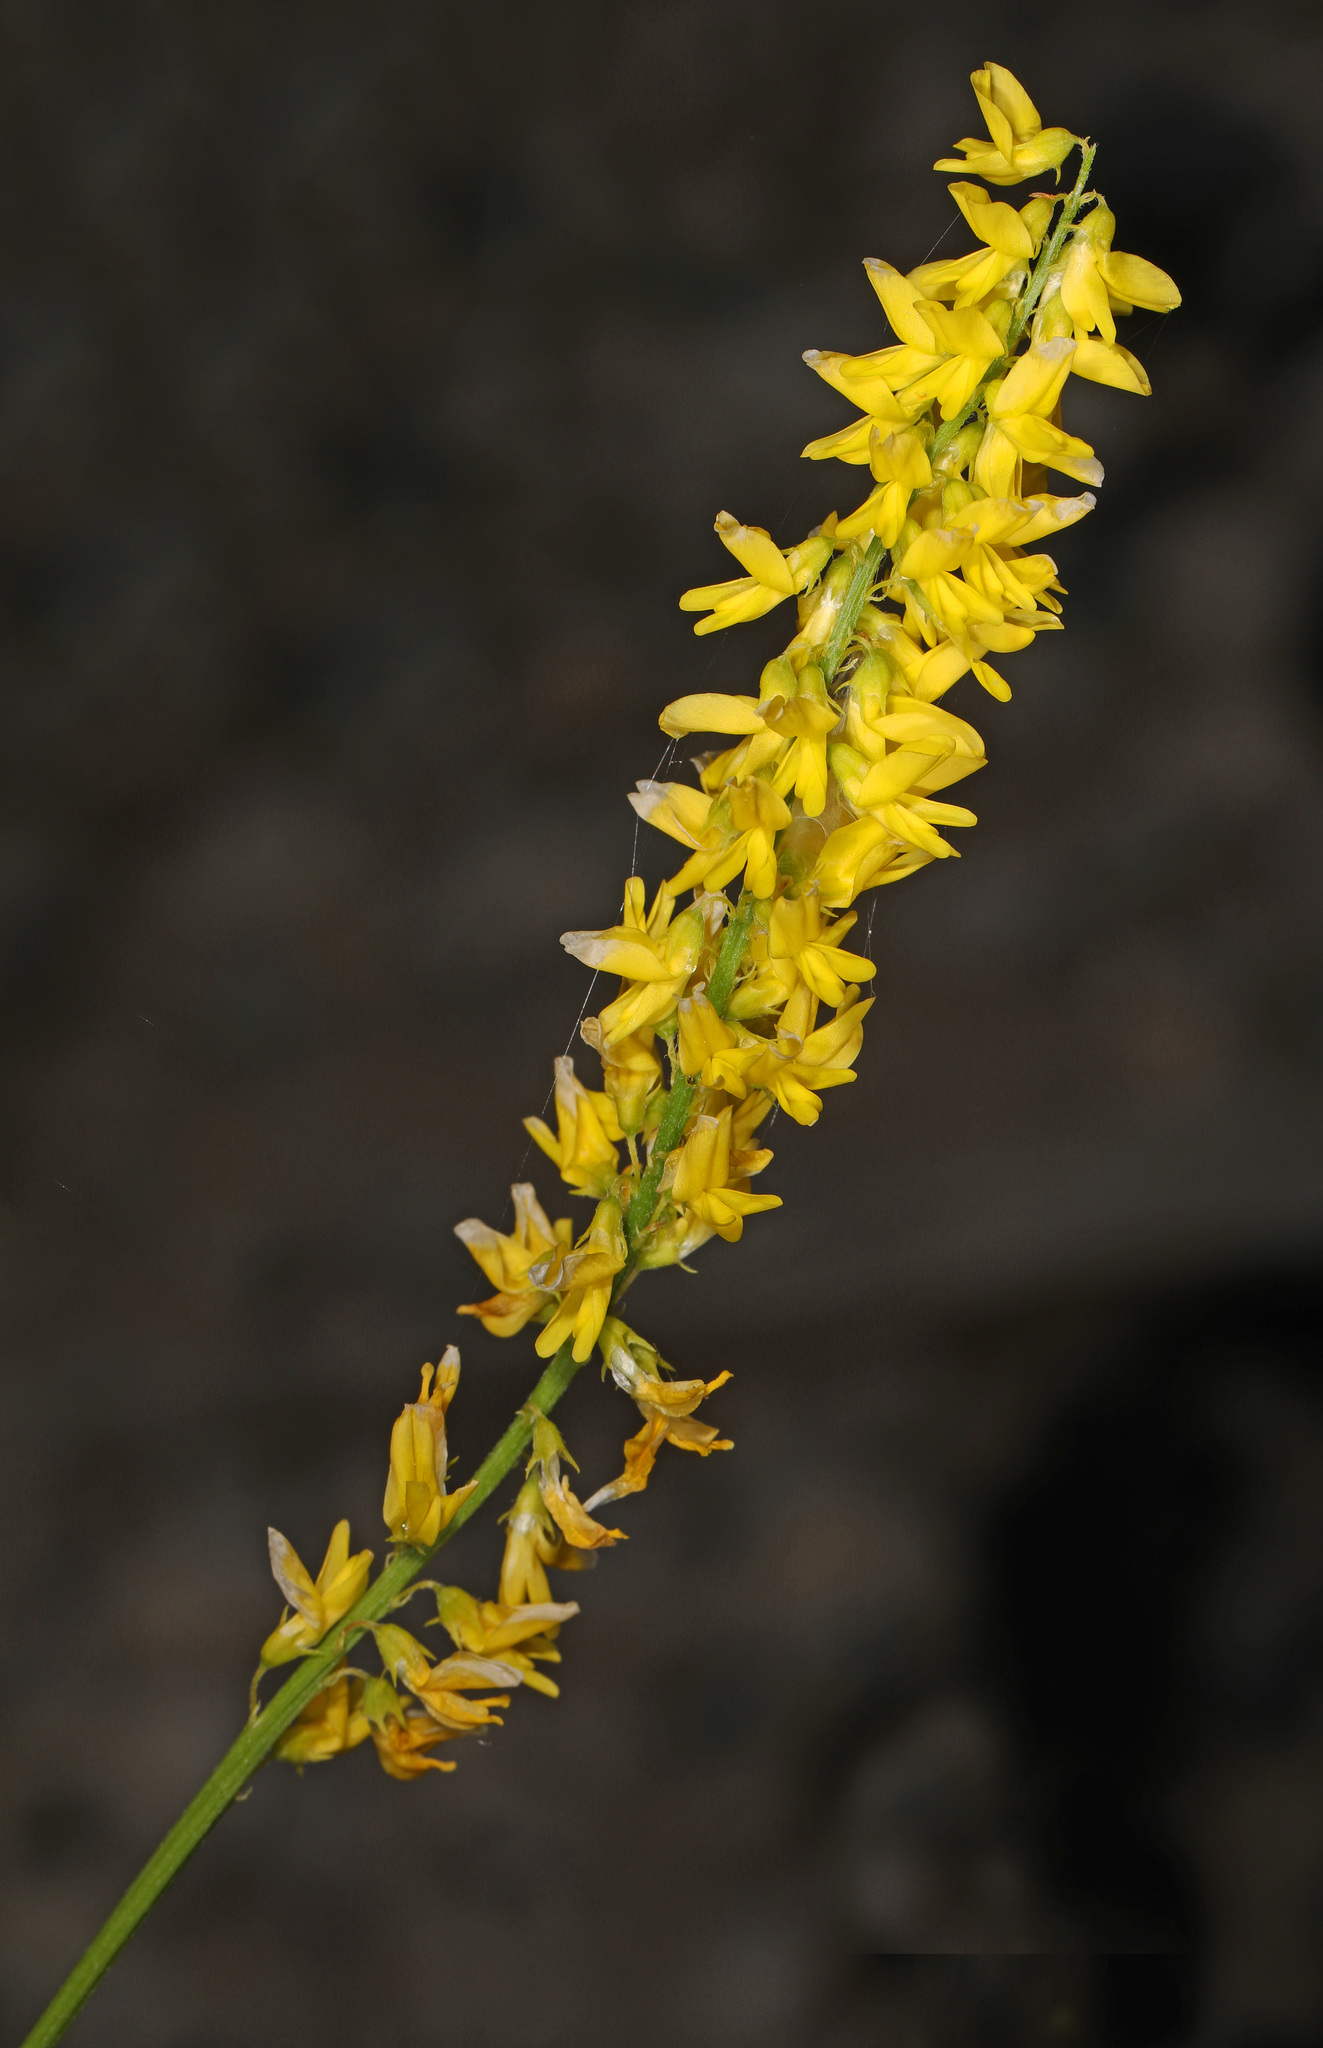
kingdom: Plantae
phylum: Tracheophyta
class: Magnoliopsida
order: Fabales
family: Fabaceae
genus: Melilotus
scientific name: Melilotus officinalis
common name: Sweetclover
